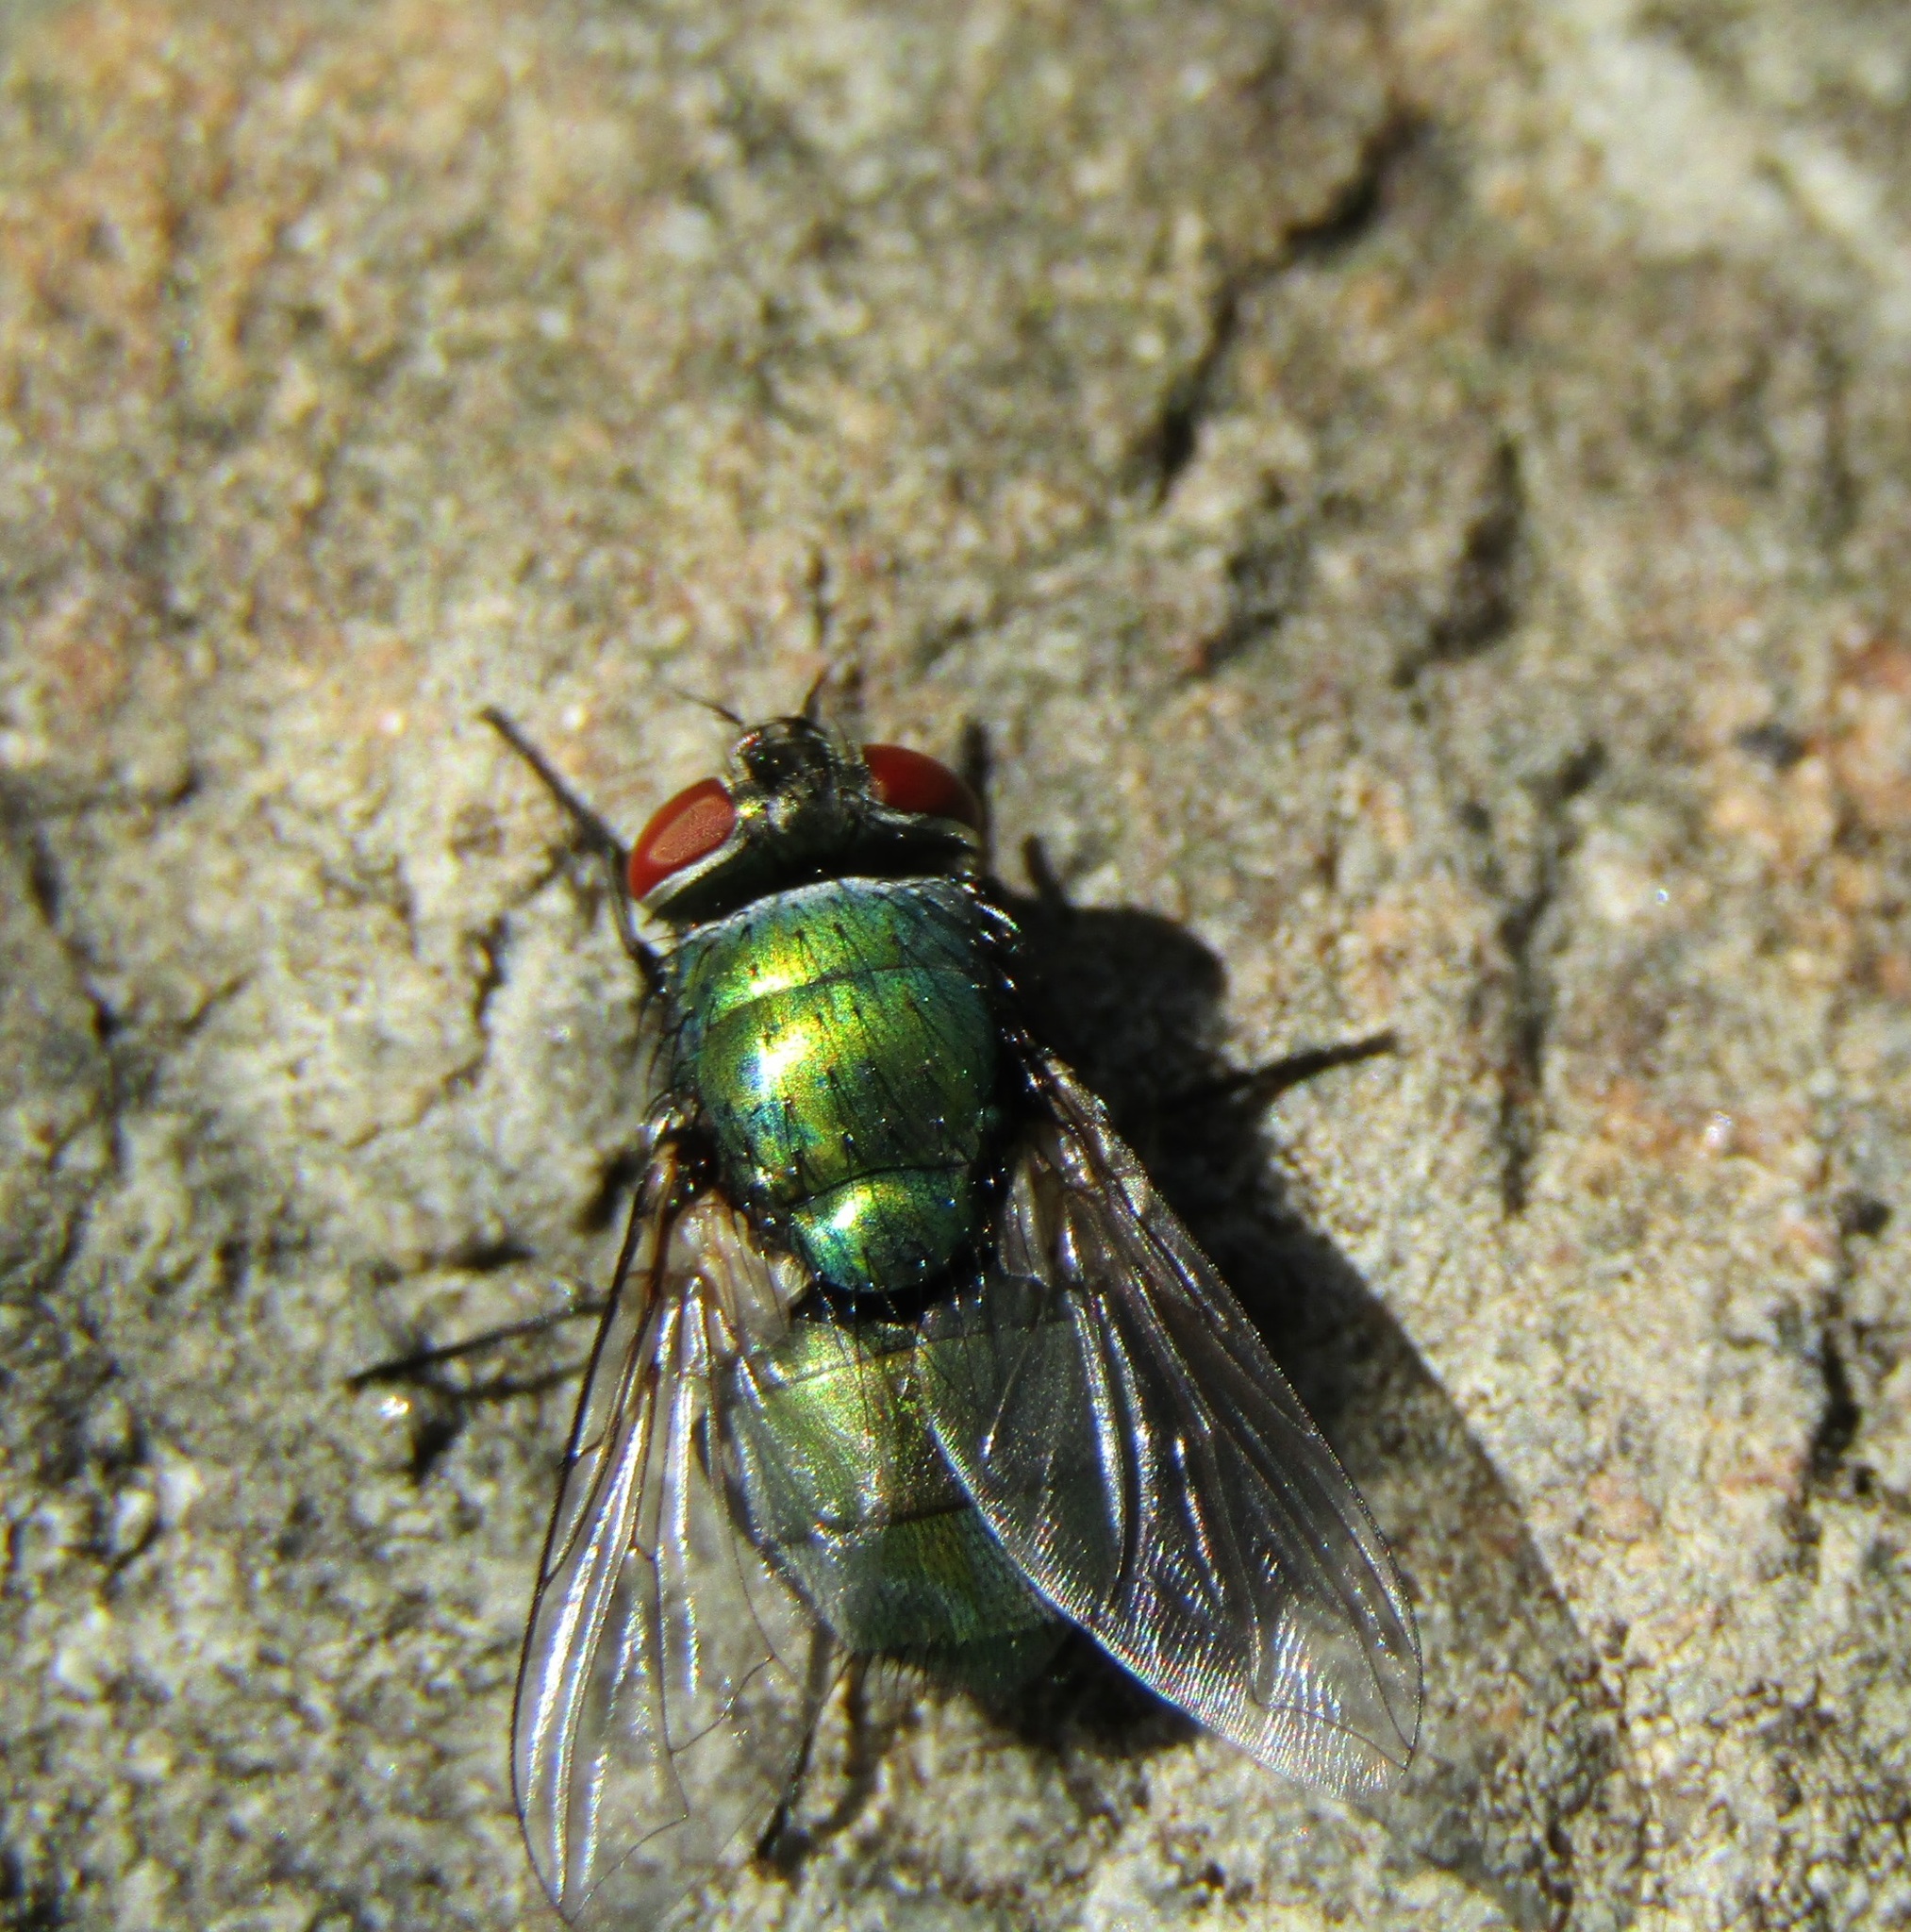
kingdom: Animalia
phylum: Arthropoda
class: Insecta
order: Diptera
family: Calliphoridae
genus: Lucilia
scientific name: Lucilia sericata
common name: Blow fly
